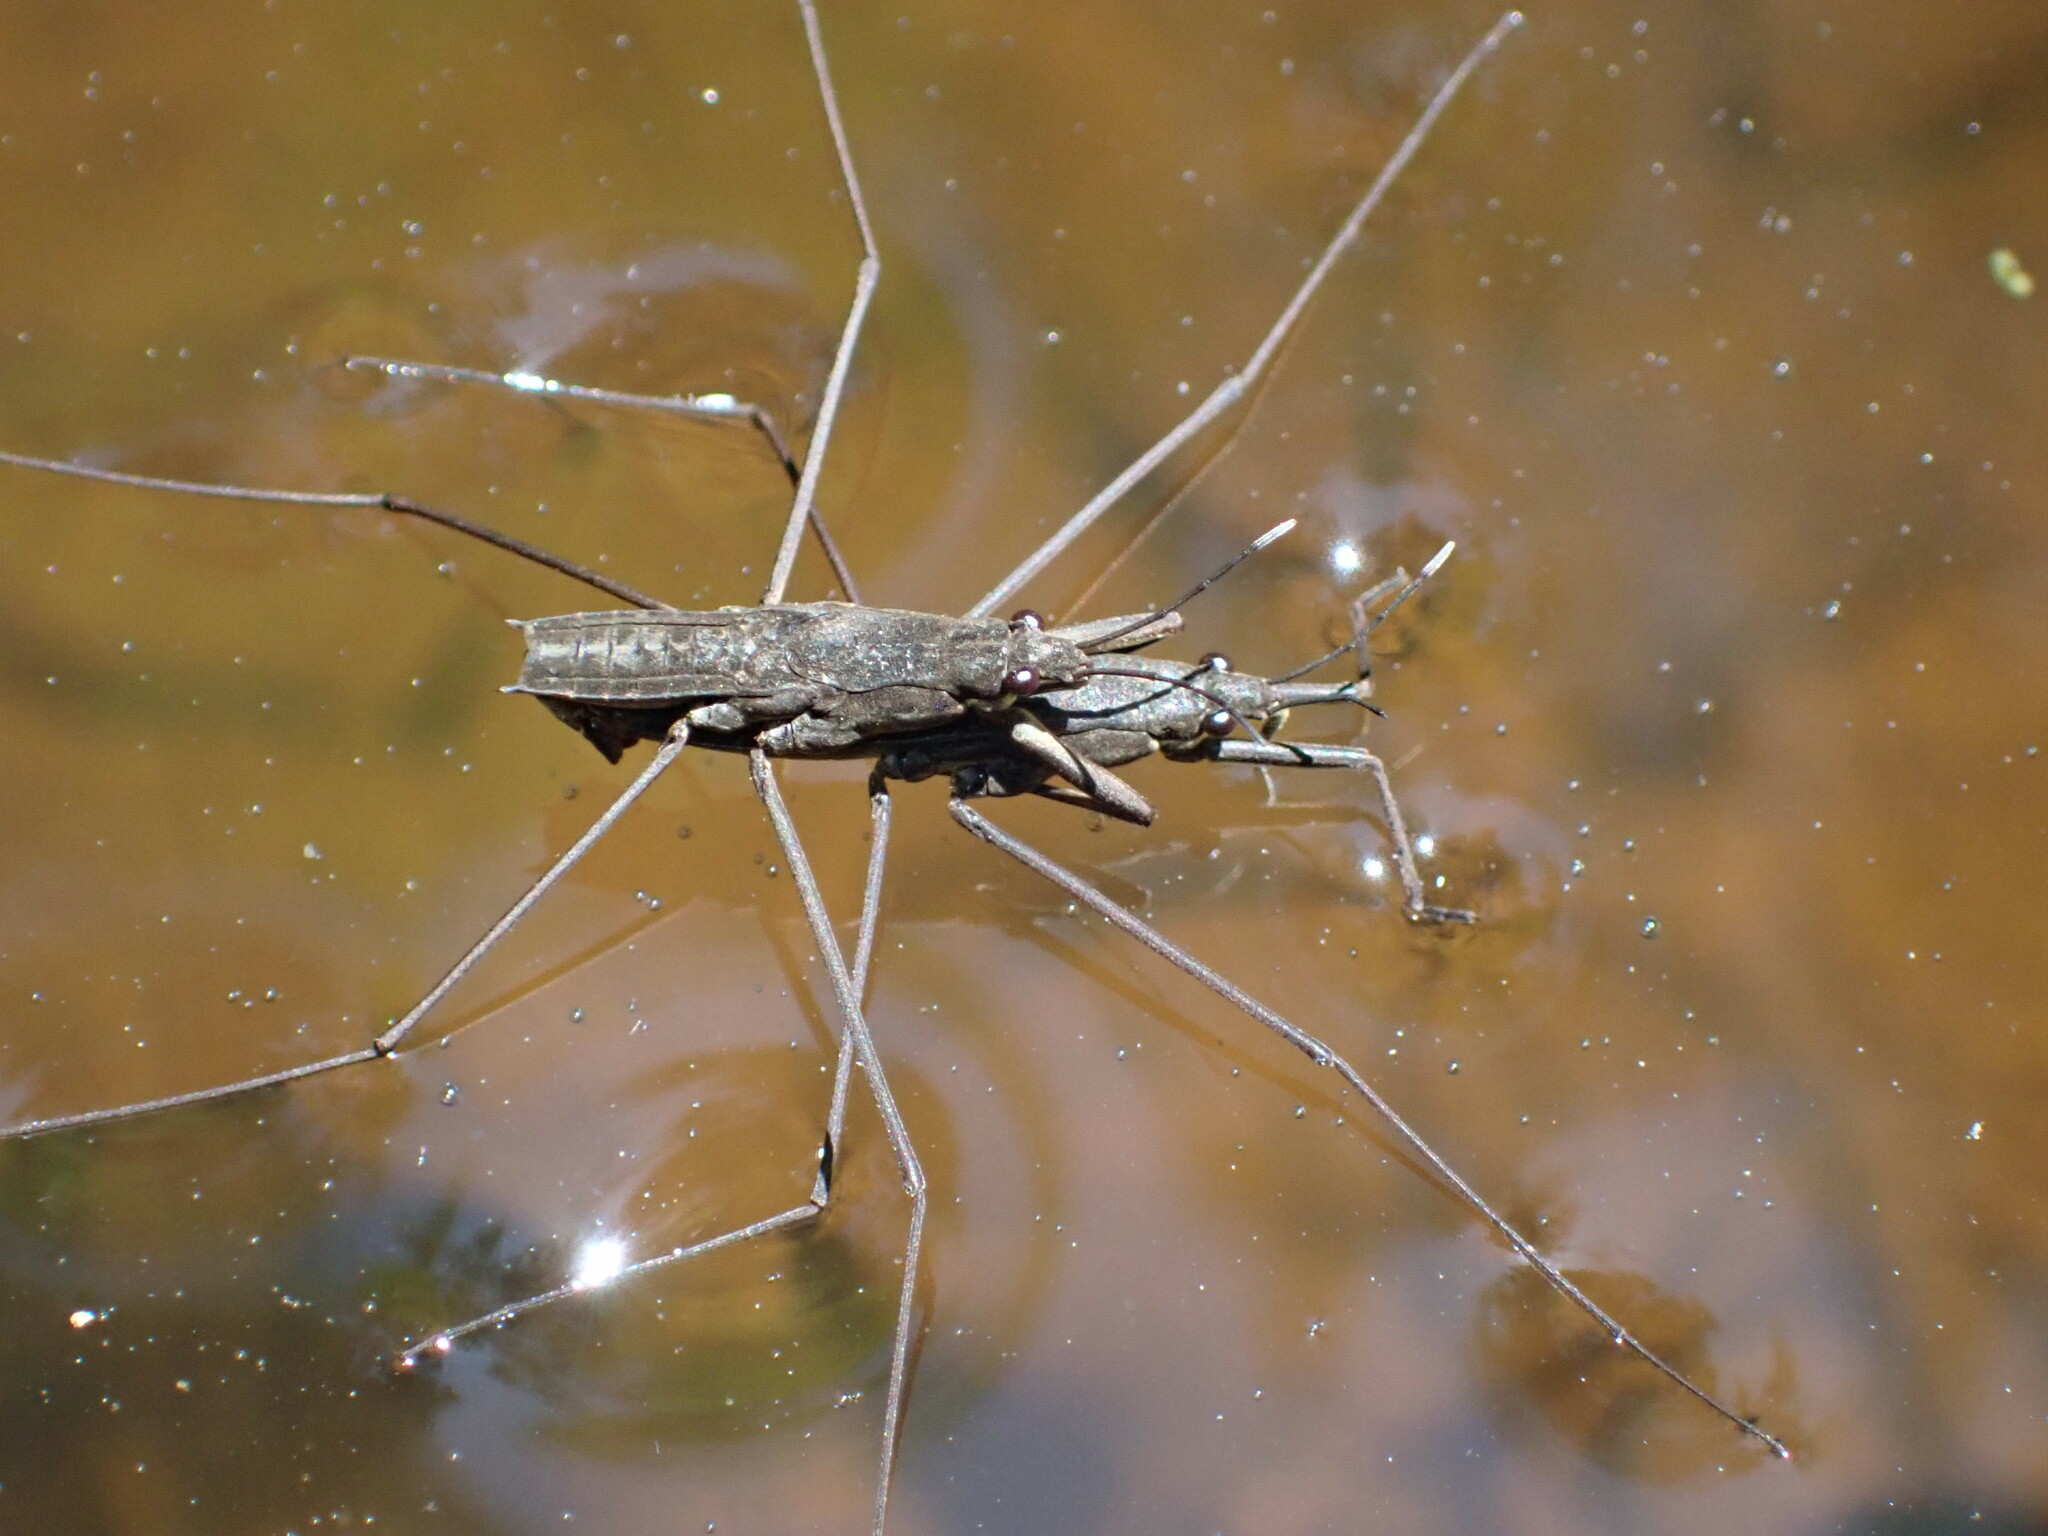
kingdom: Animalia
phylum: Arthropoda
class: Insecta
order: Hemiptera
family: Gerridae
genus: Aquarius
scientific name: Aquarius remigis
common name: Common water strider
